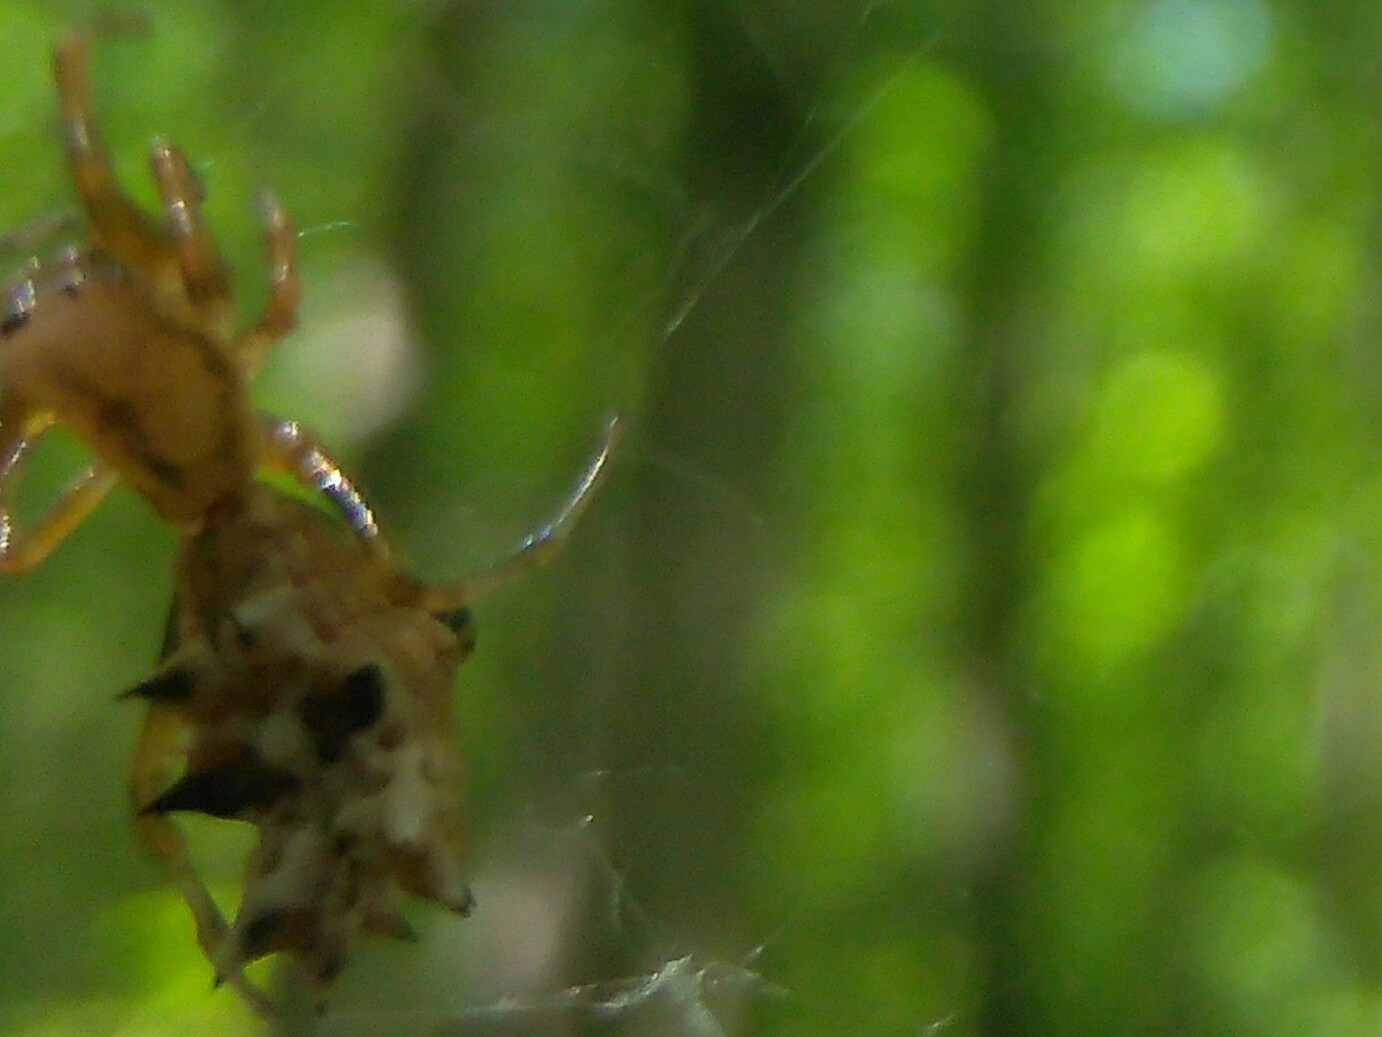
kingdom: Animalia
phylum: Arthropoda
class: Arachnida
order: Araneae
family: Araneidae
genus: Micrathena
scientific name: Micrathena gracilis
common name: Orb weavers
